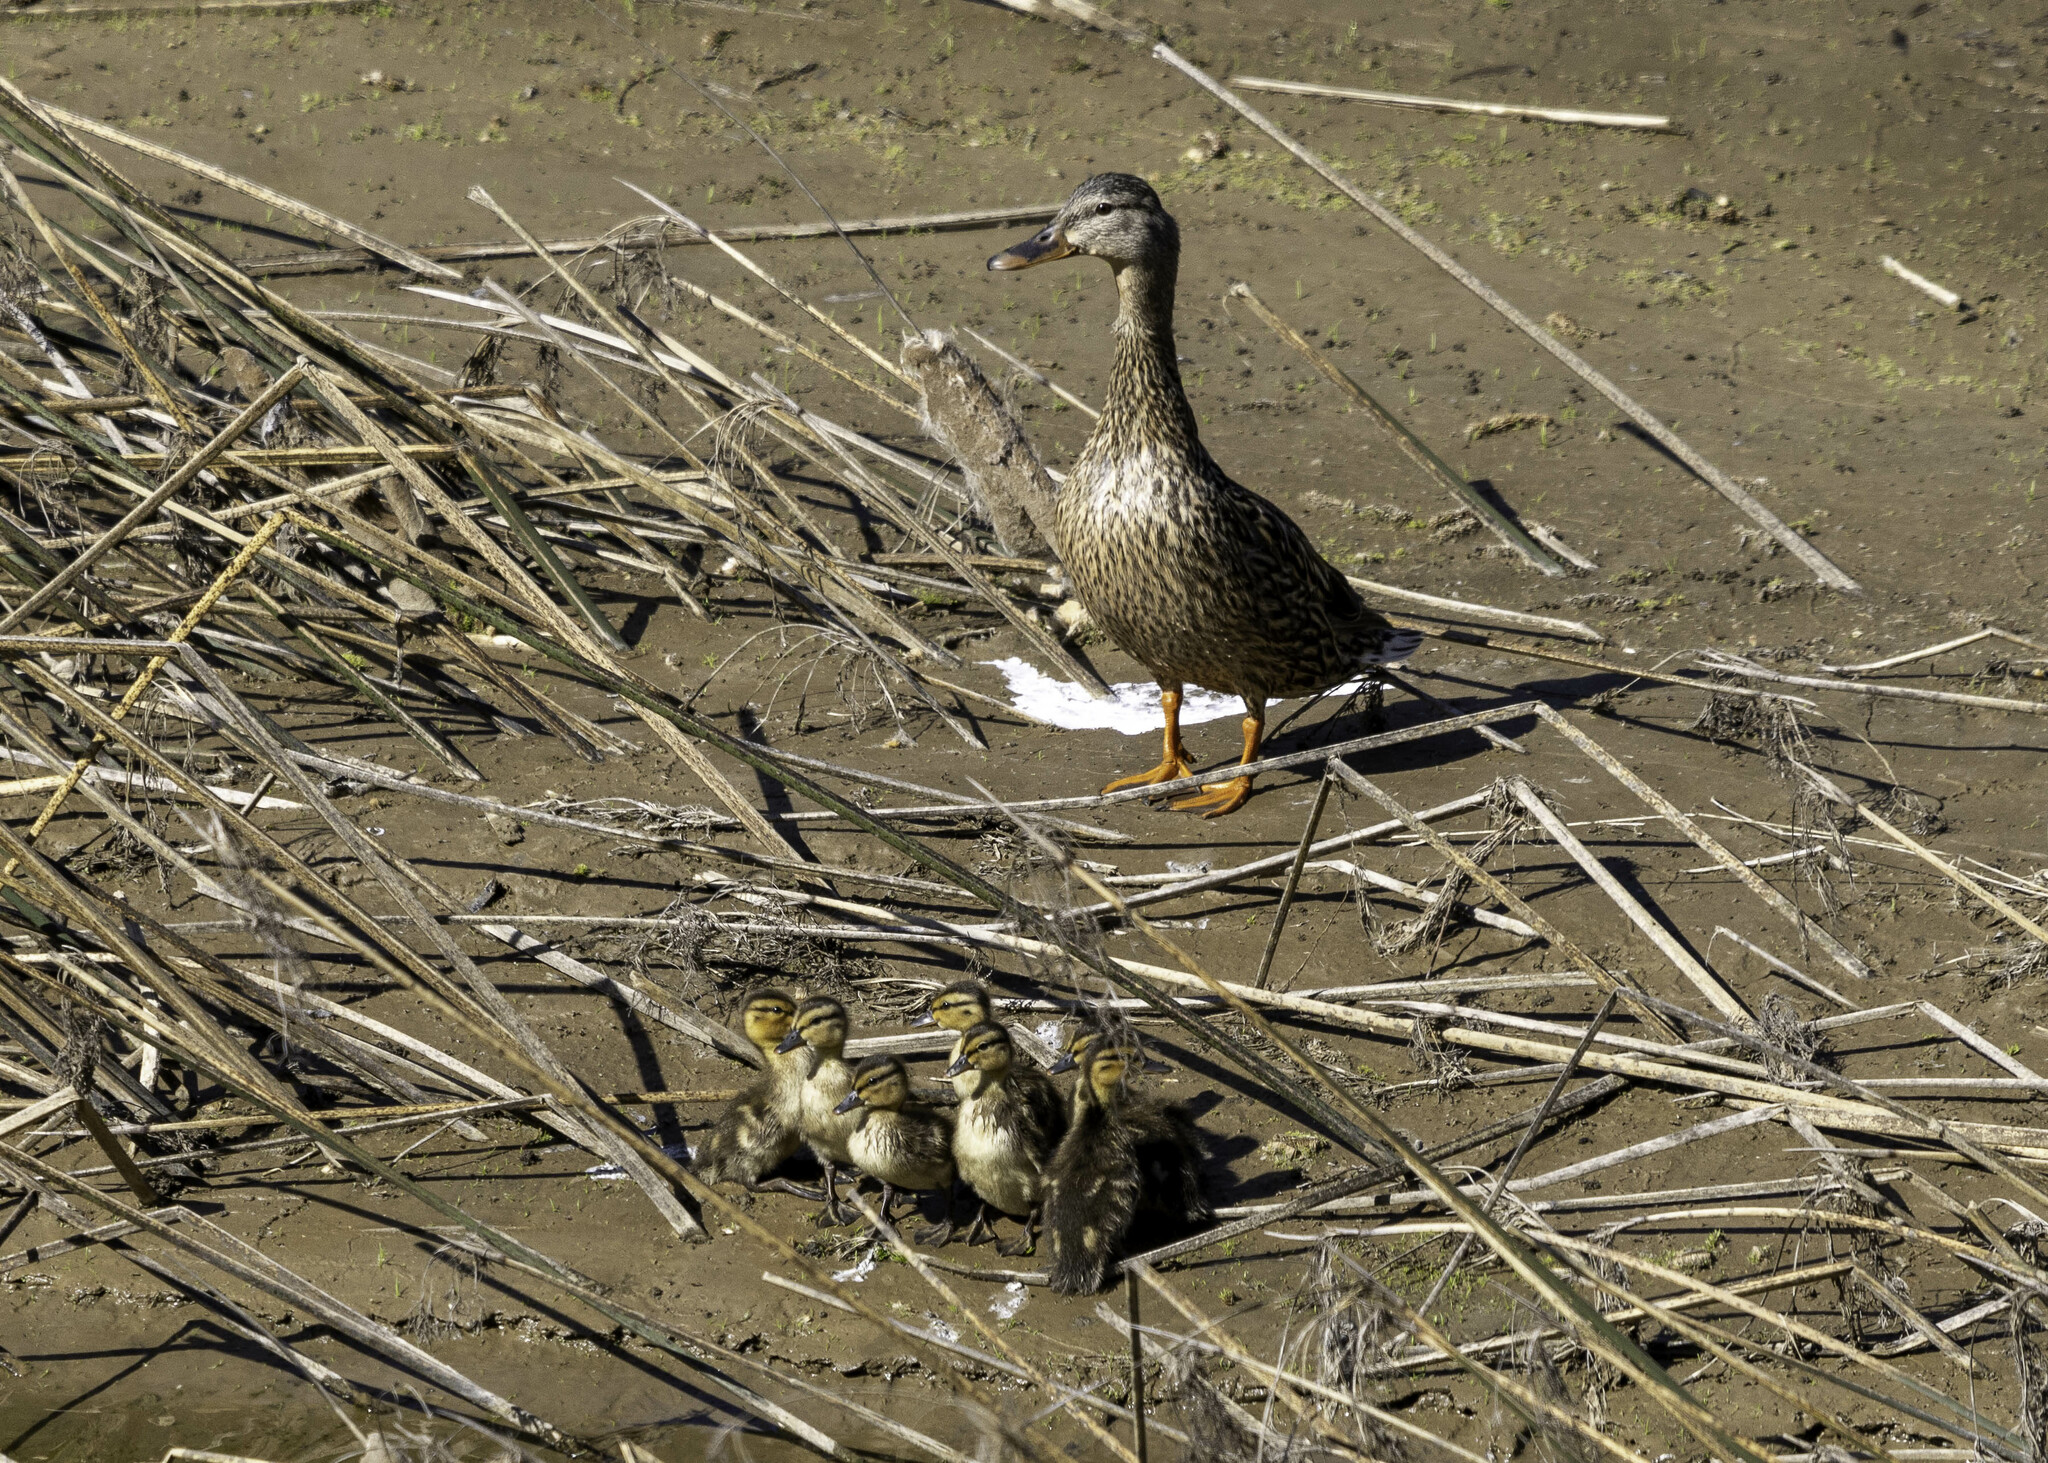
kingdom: Animalia
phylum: Chordata
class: Aves
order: Anseriformes
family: Anatidae
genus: Anas
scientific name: Anas platyrhynchos
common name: Mallard
